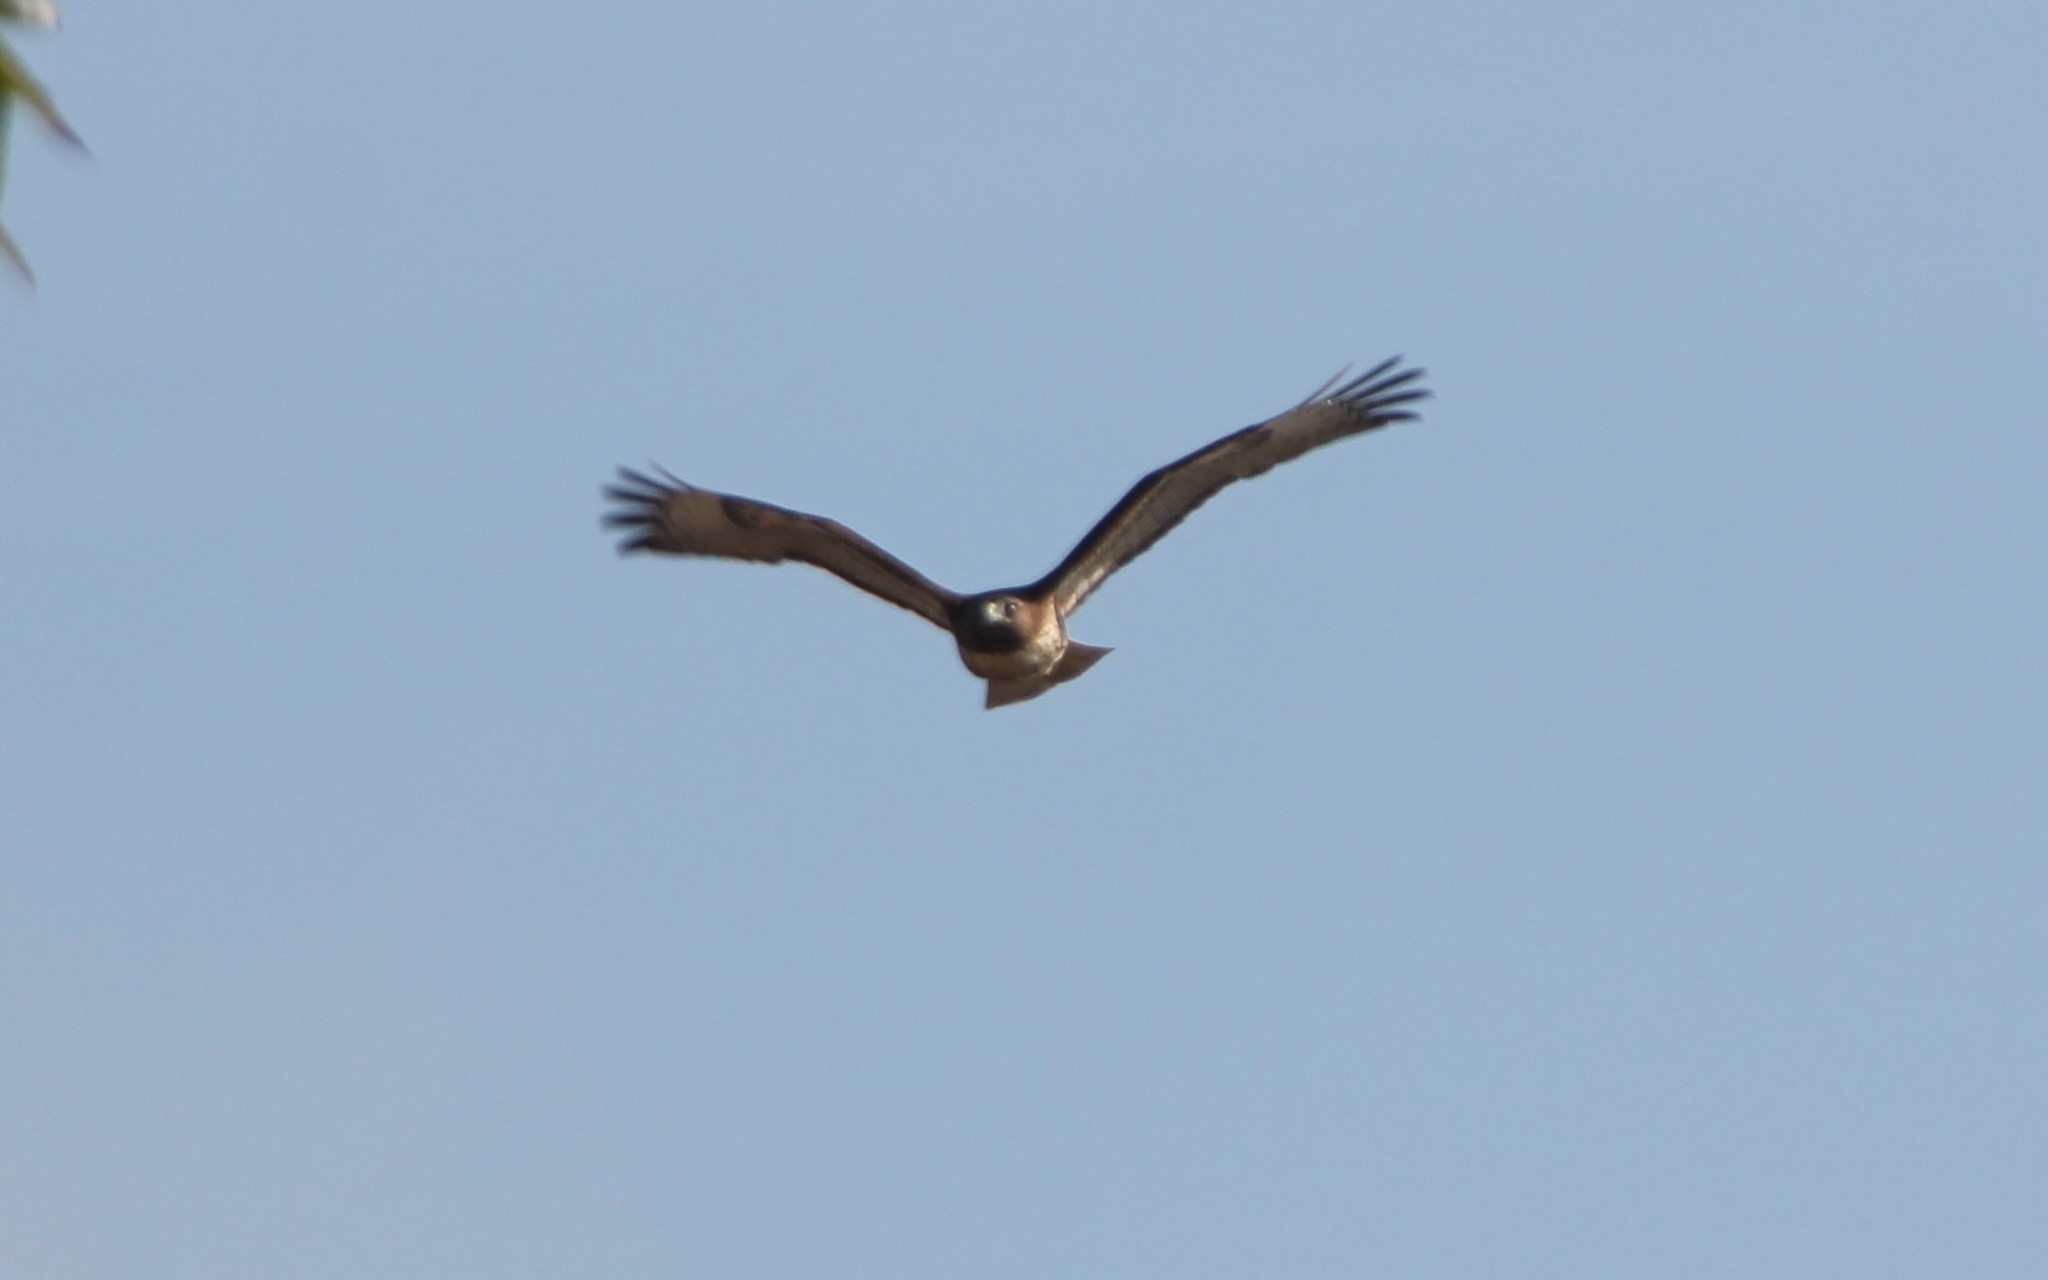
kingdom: Animalia
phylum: Chordata
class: Aves
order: Accipitriformes
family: Accipitridae
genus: Buteo
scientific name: Buteo jamaicensis
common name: Red-tailed hawk
